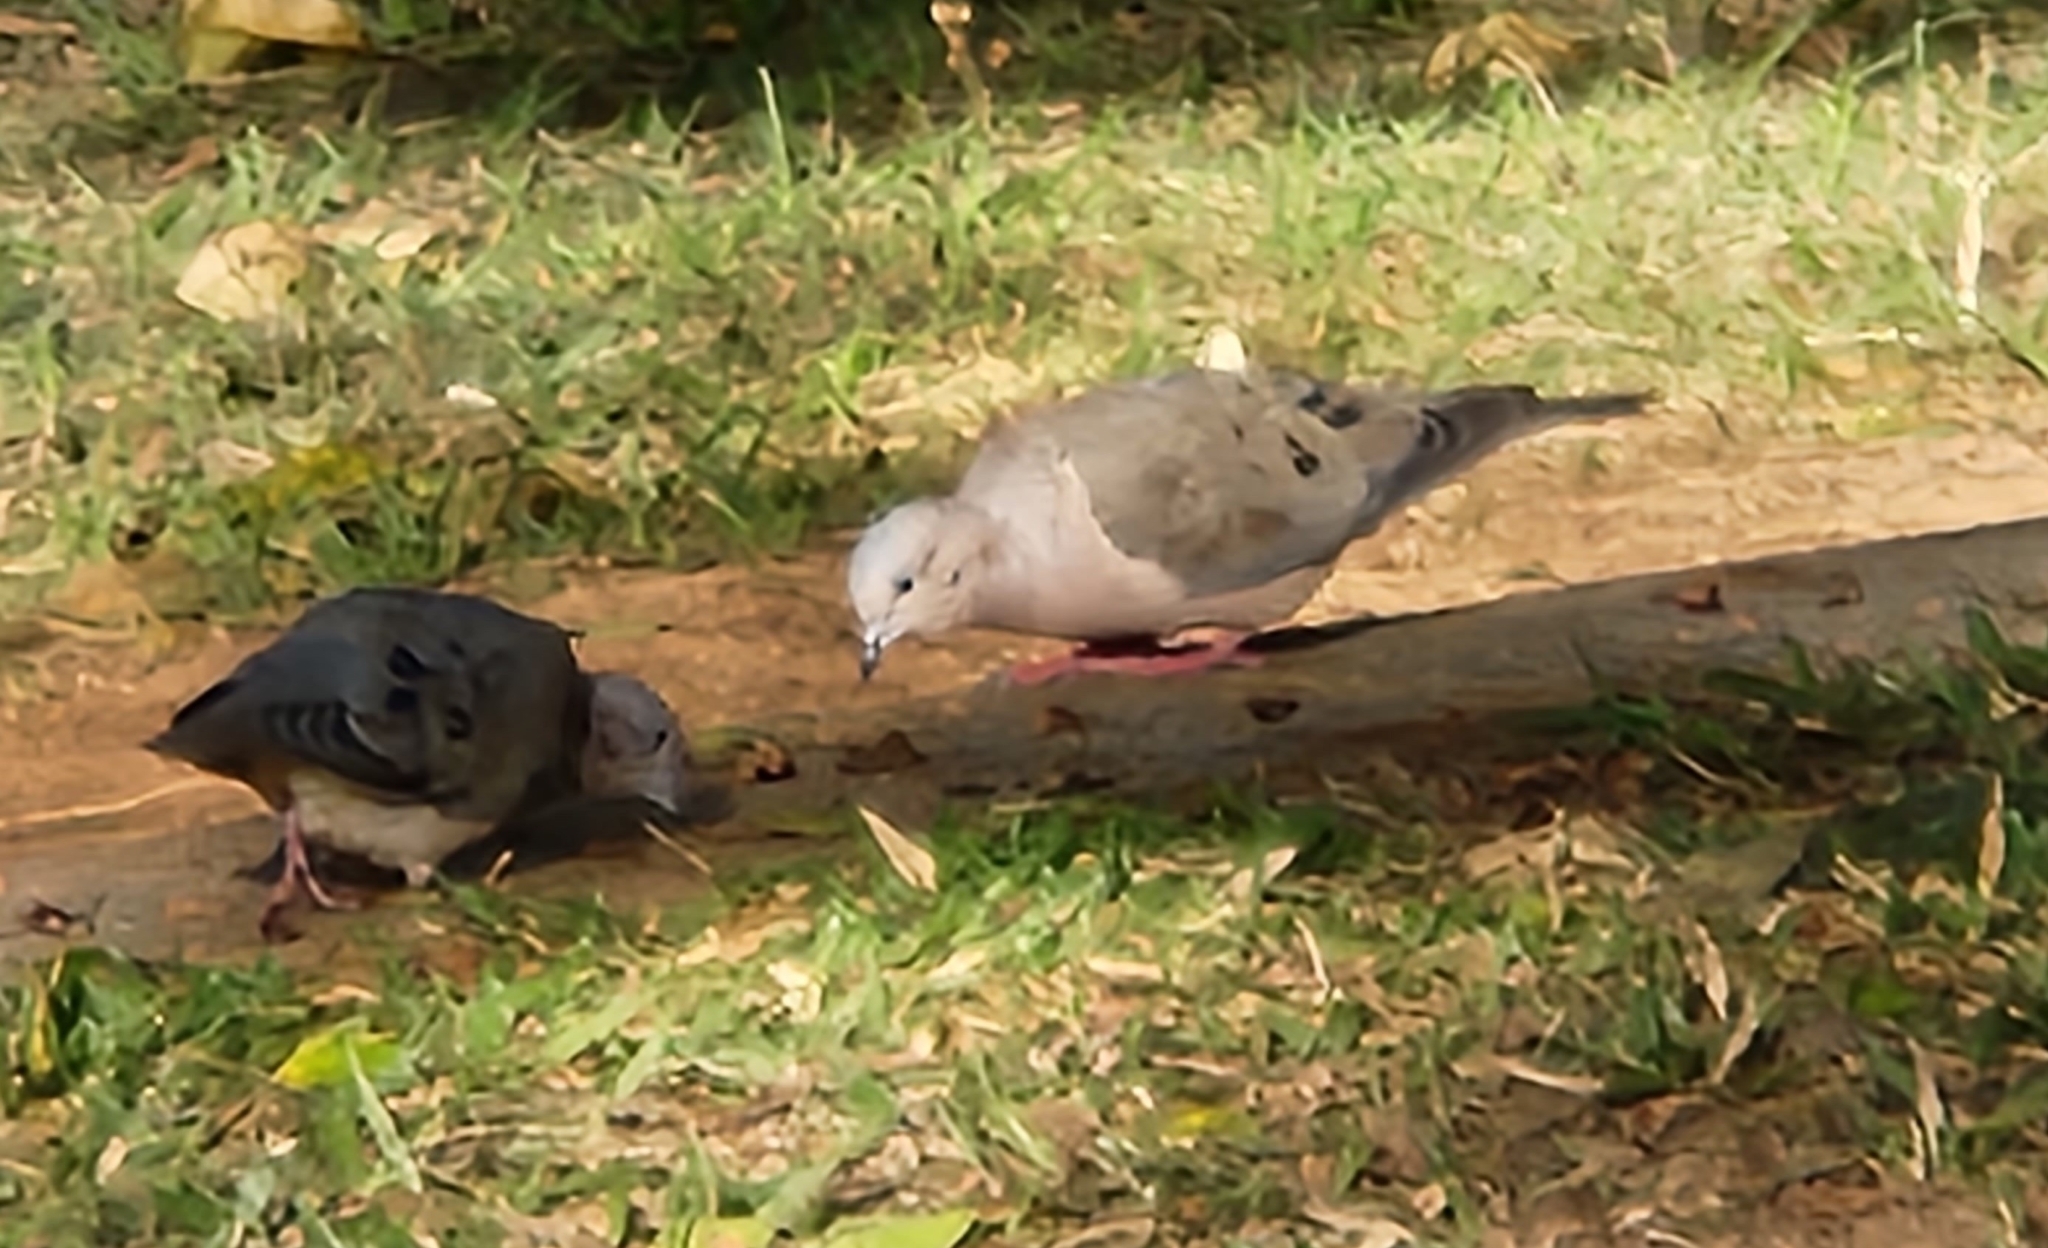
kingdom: Animalia
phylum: Chordata
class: Aves
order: Columbiformes
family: Columbidae
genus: Zenaida
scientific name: Zenaida auriculata
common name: Eared dove
